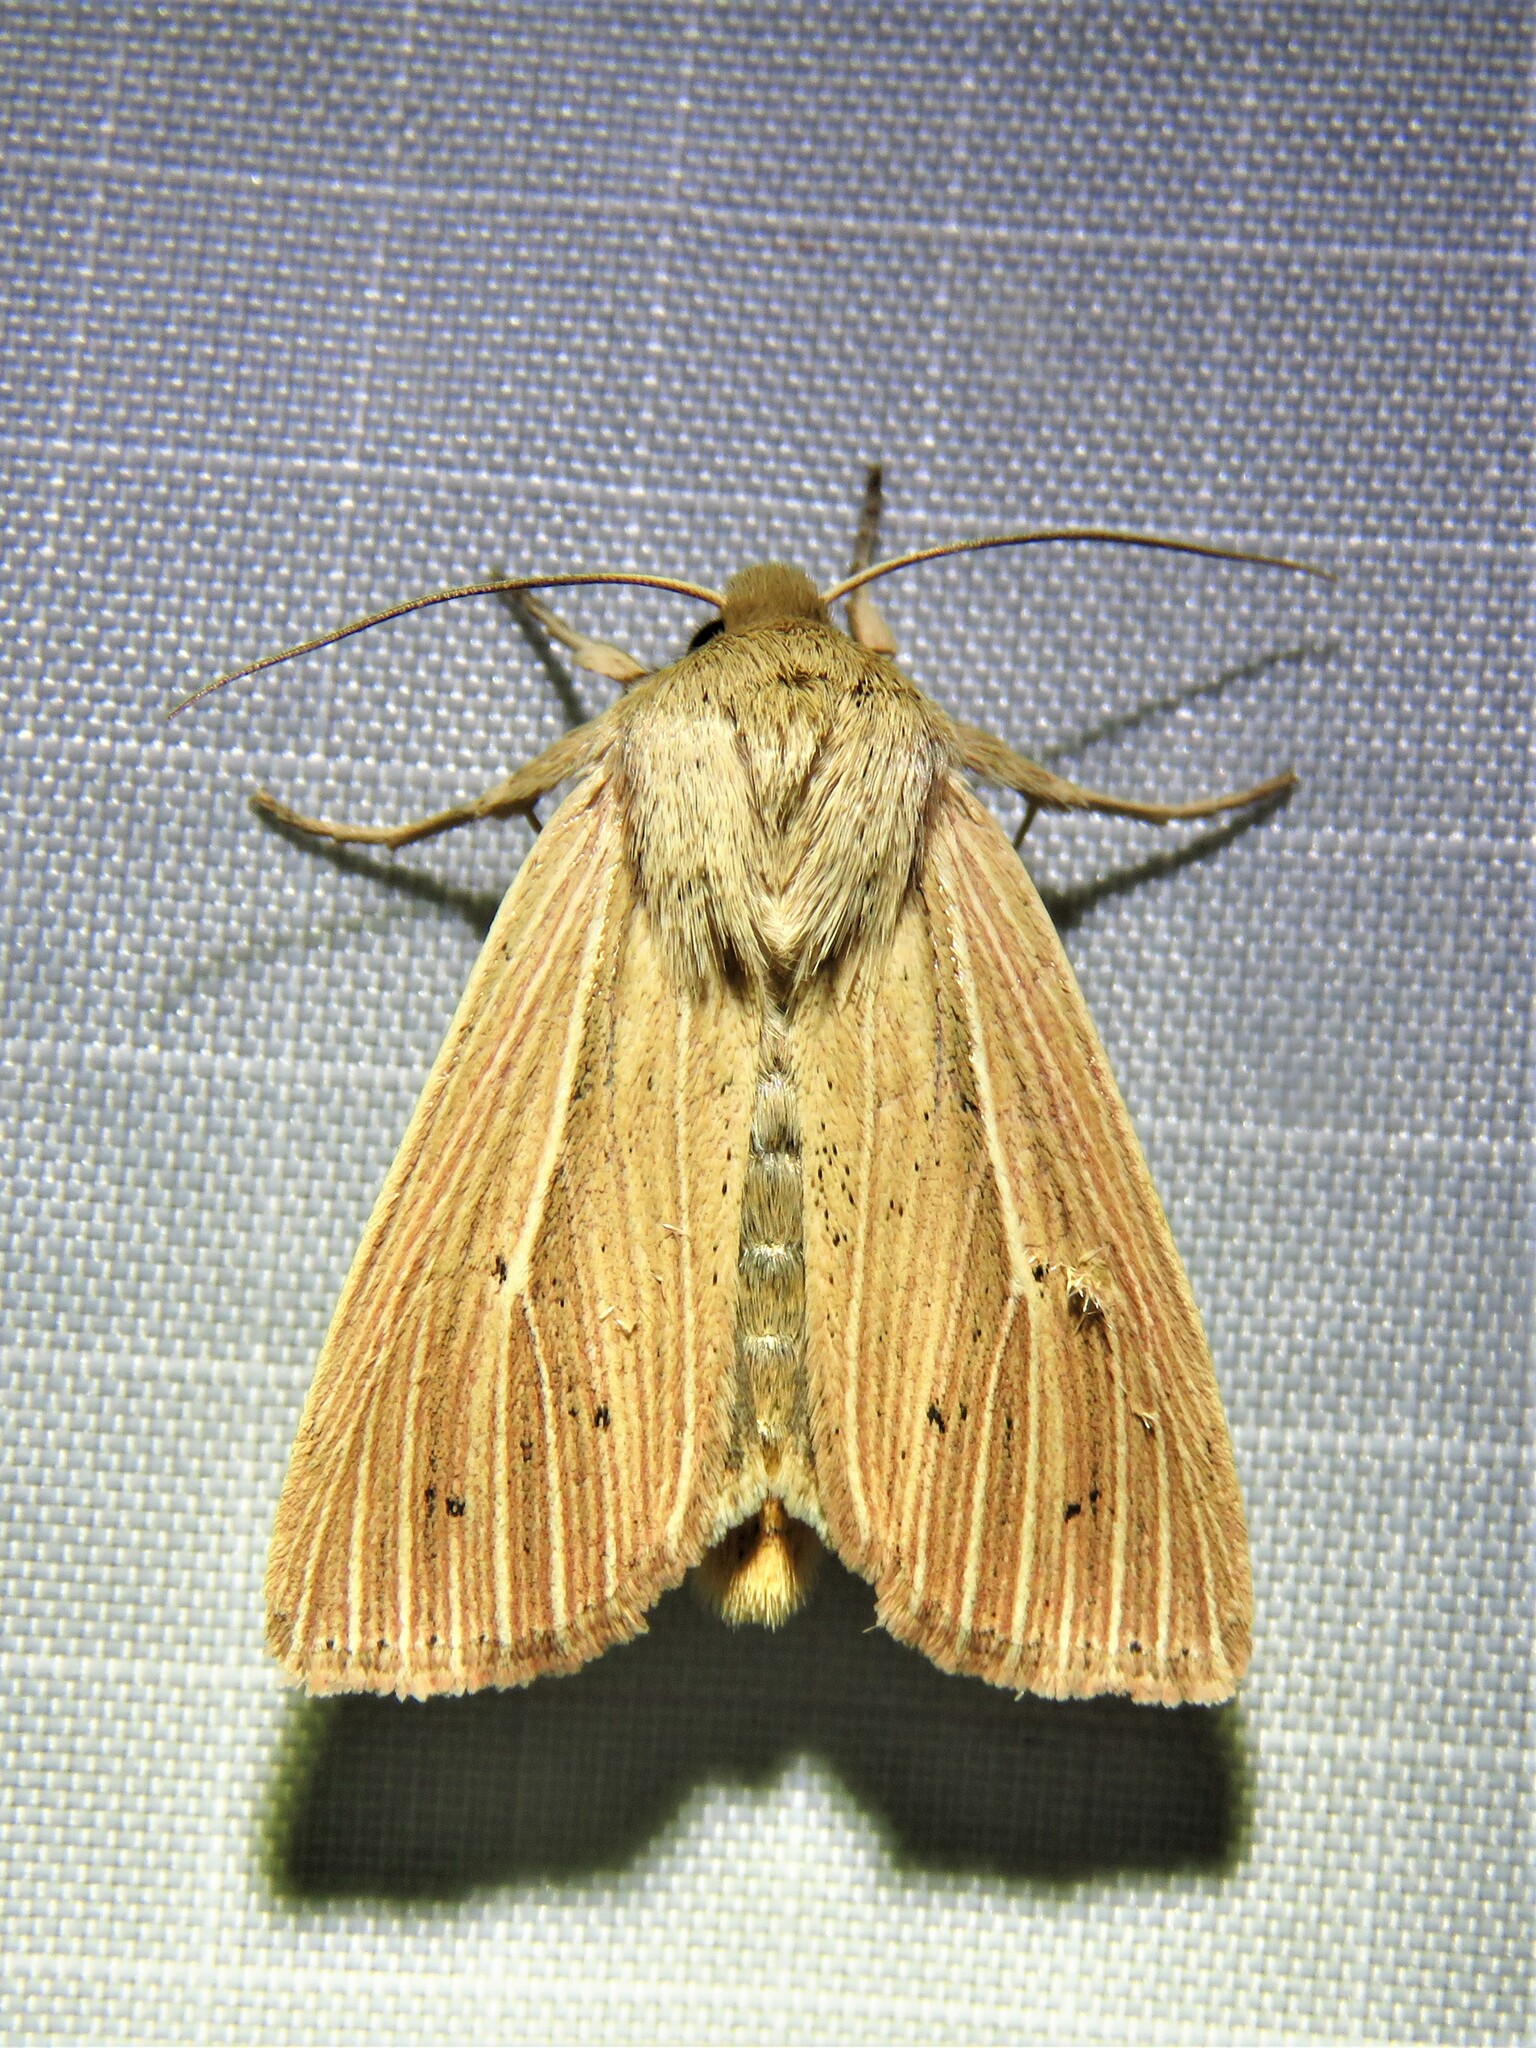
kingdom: Animalia
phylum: Arthropoda
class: Insecta
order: Lepidoptera
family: Noctuidae
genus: Mythimna
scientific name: Mythimna pallens
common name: Common wainscot
